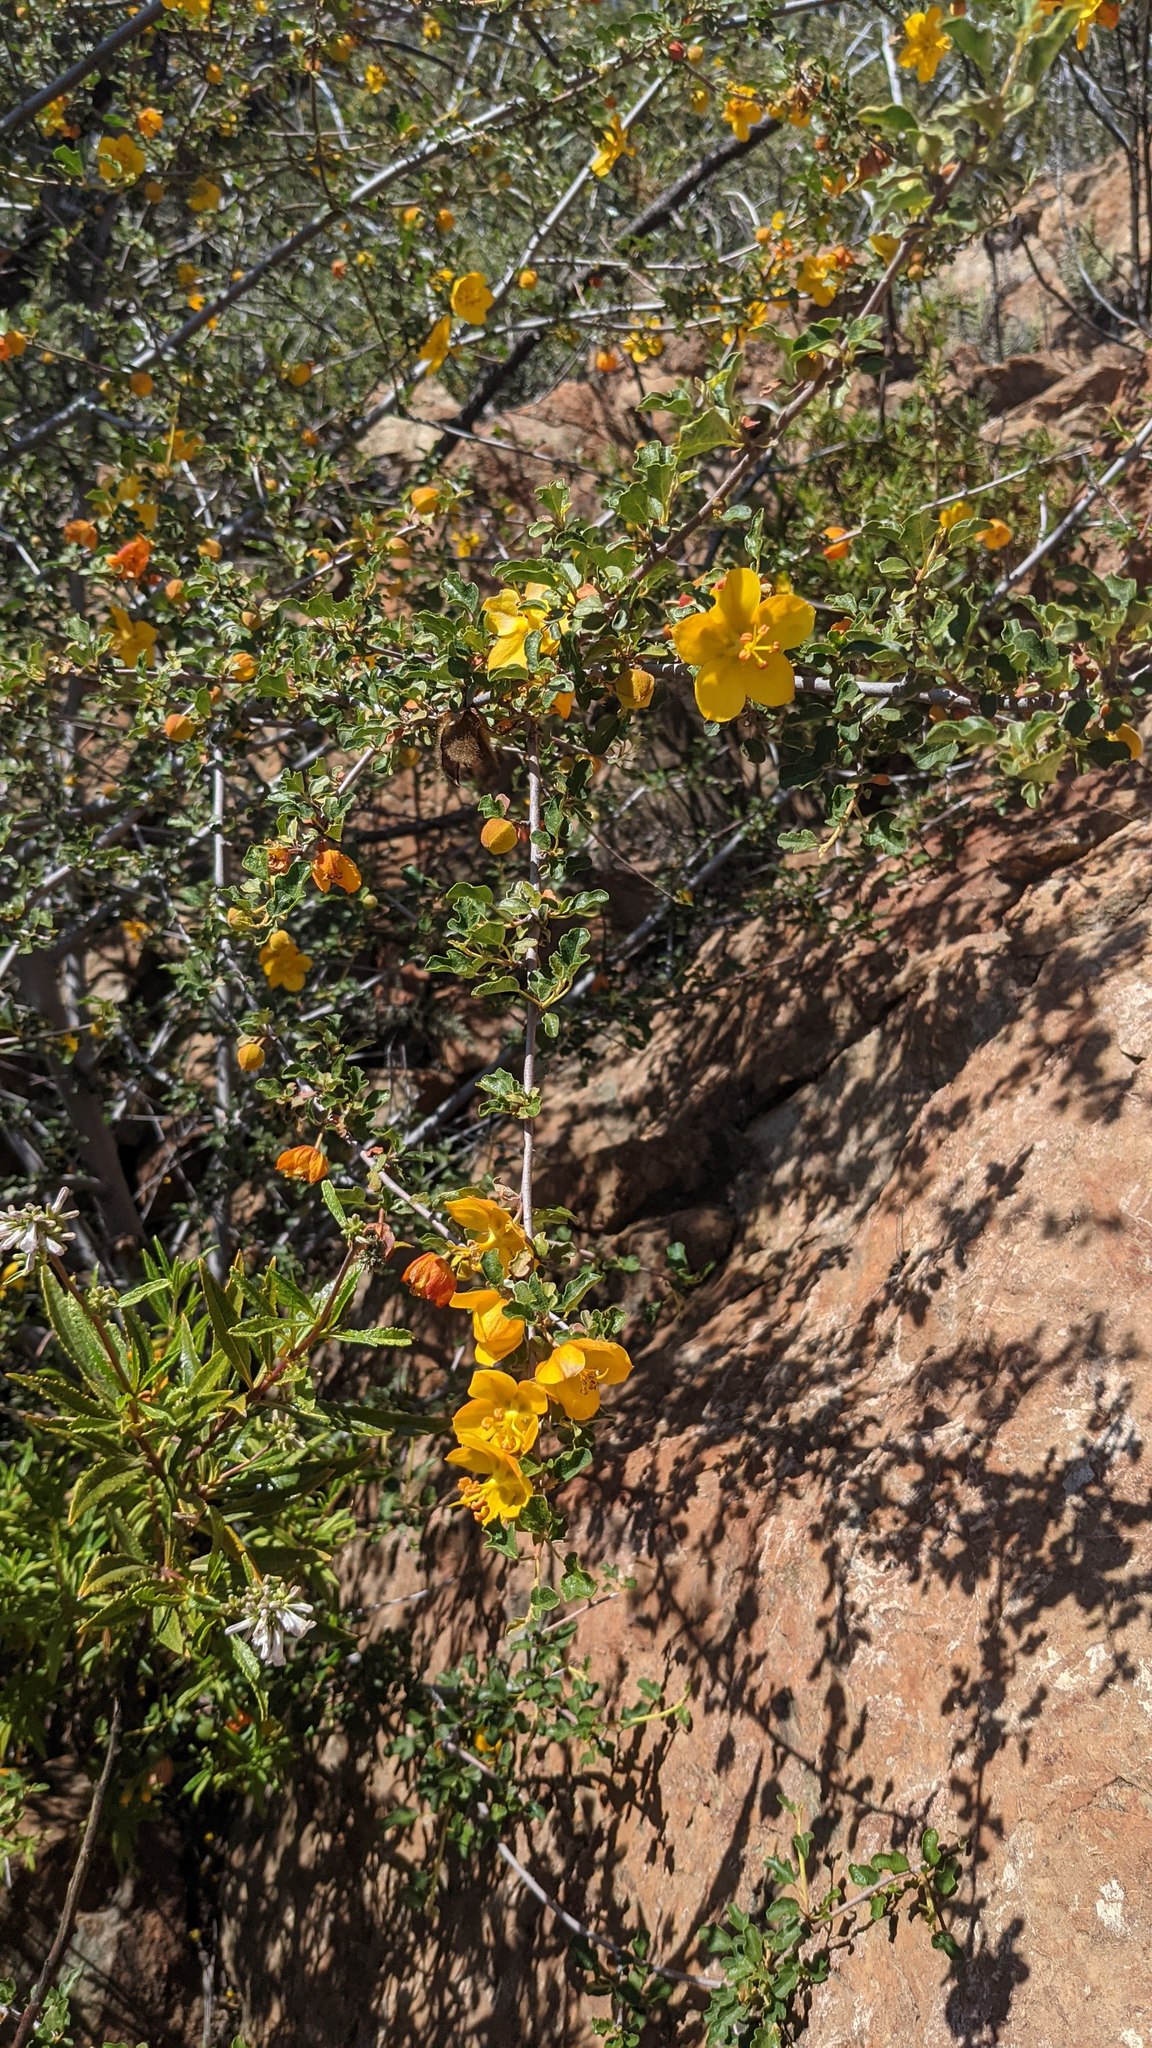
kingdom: Plantae
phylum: Tracheophyta
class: Magnoliopsida
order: Malvales
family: Malvaceae
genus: Fremontodendron
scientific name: Fremontodendron californicum
